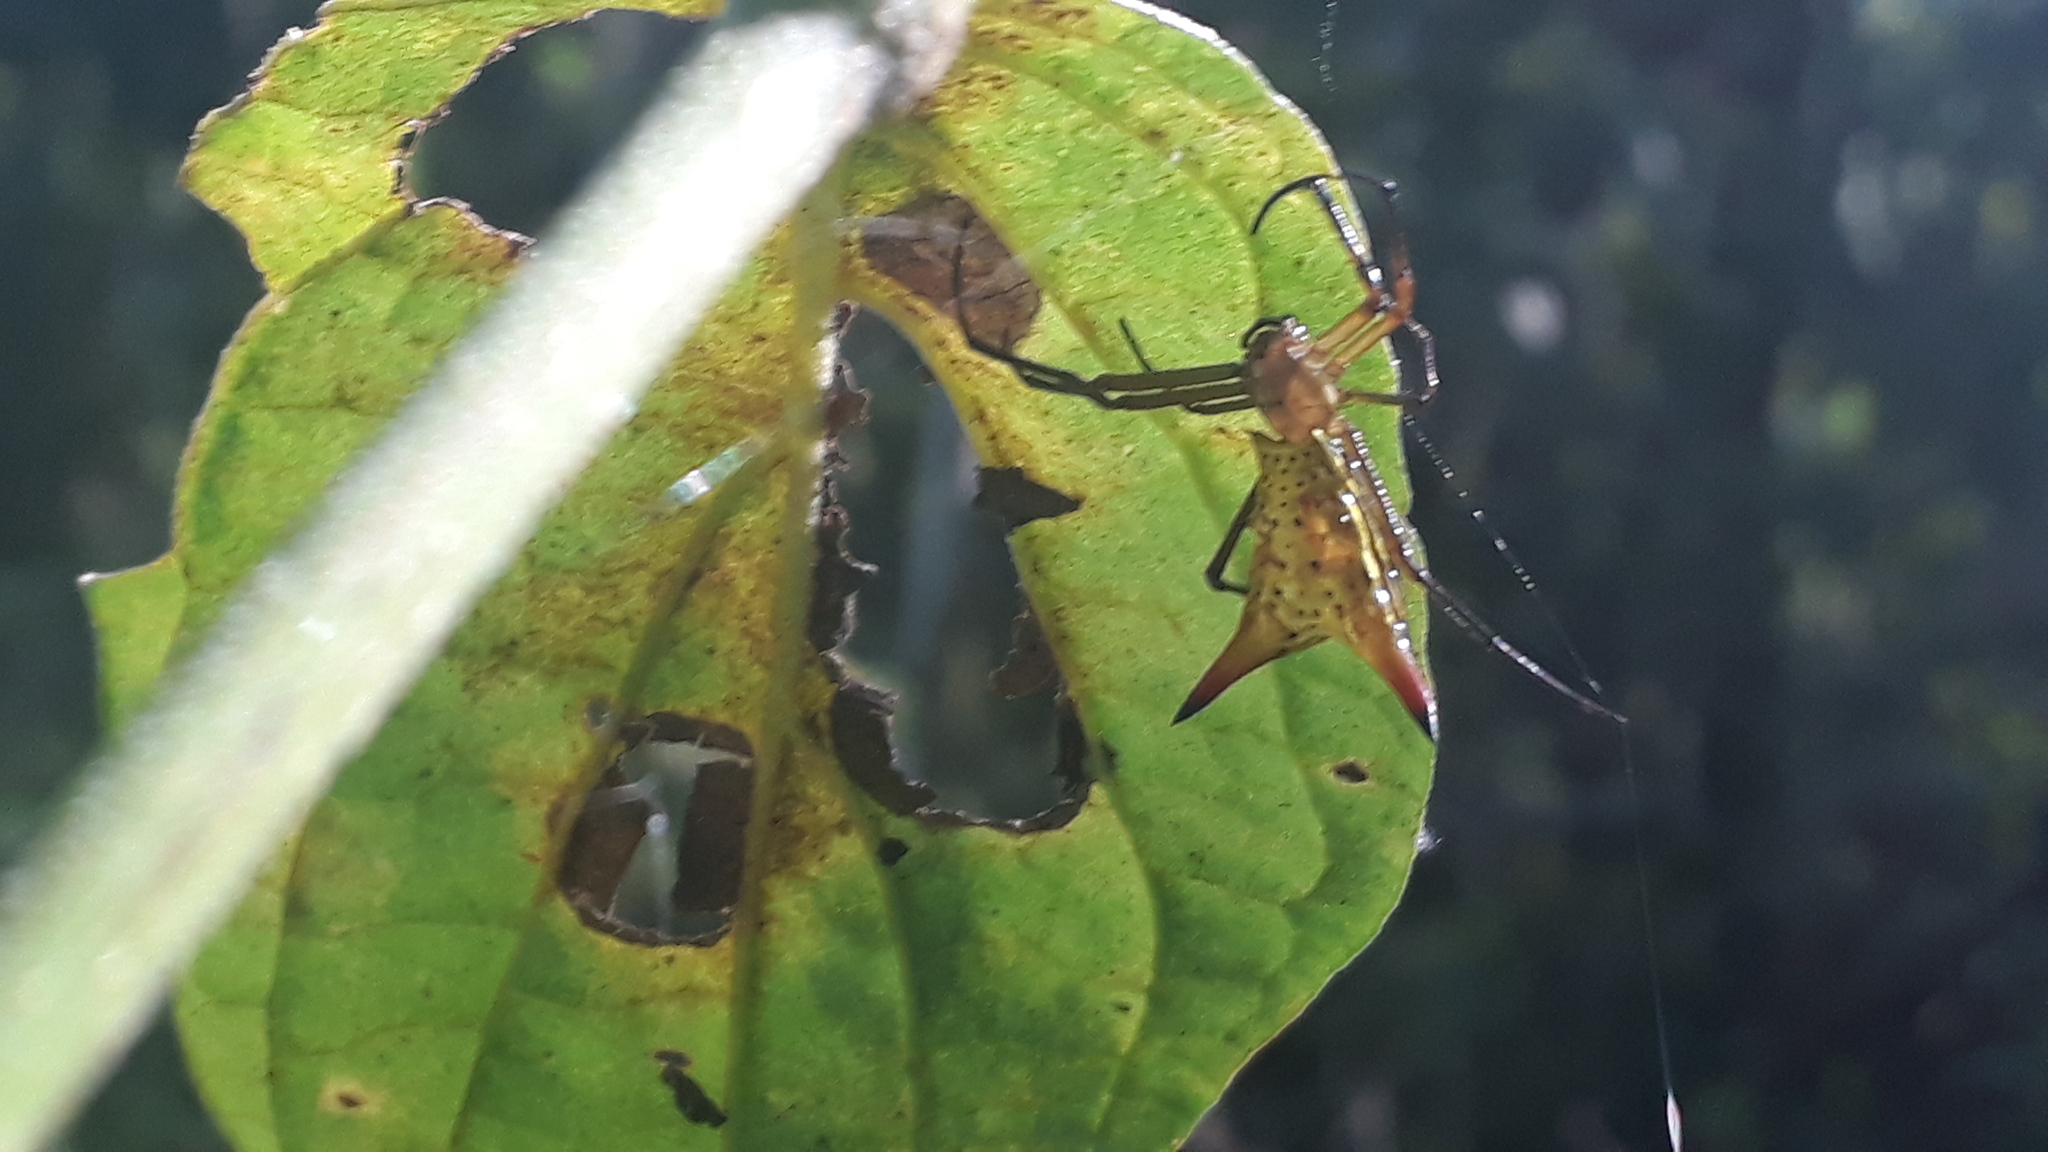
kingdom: Animalia
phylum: Arthropoda
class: Arachnida
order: Araneae
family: Araneidae
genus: Micrathena
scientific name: Micrathena crassispina
